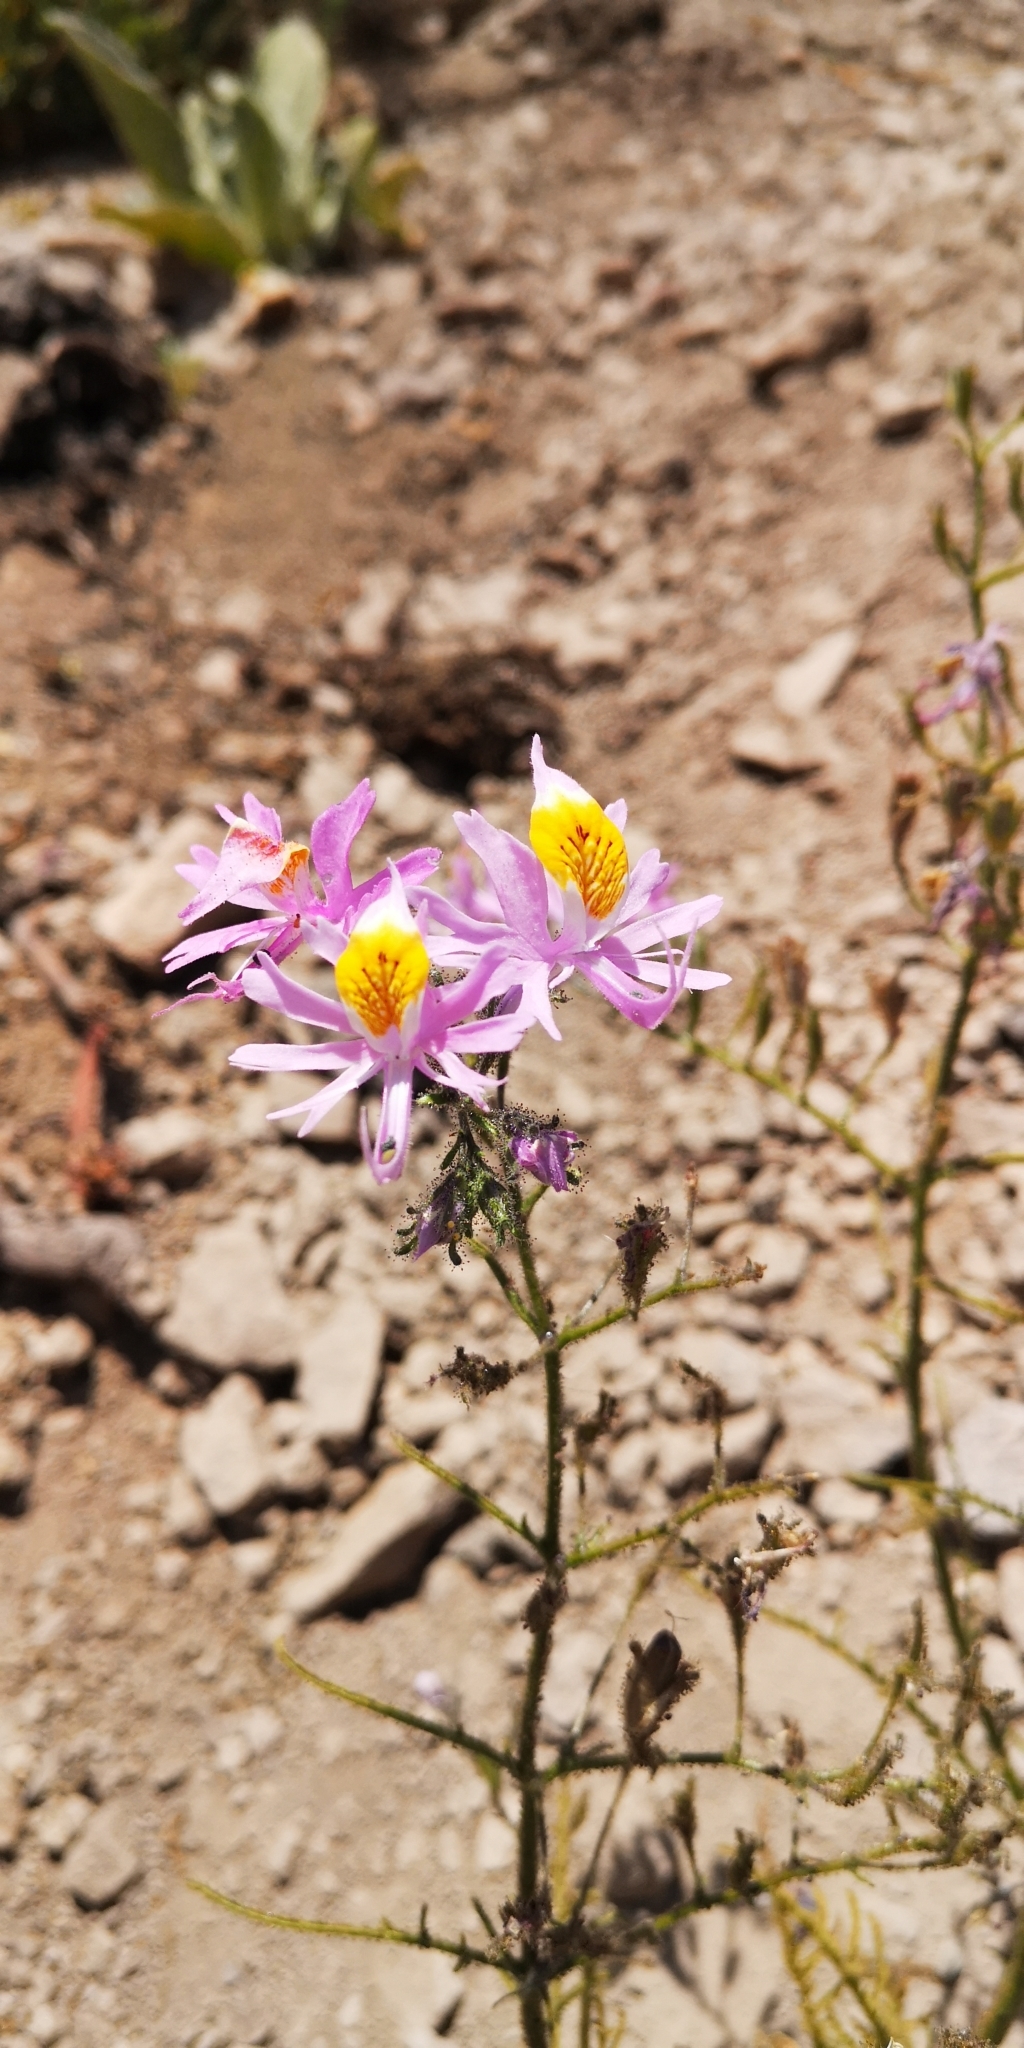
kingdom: Plantae
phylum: Tracheophyta
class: Magnoliopsida
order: Solanales
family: Solanaceae
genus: Schizanthus
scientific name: Schizanthus hookeri
